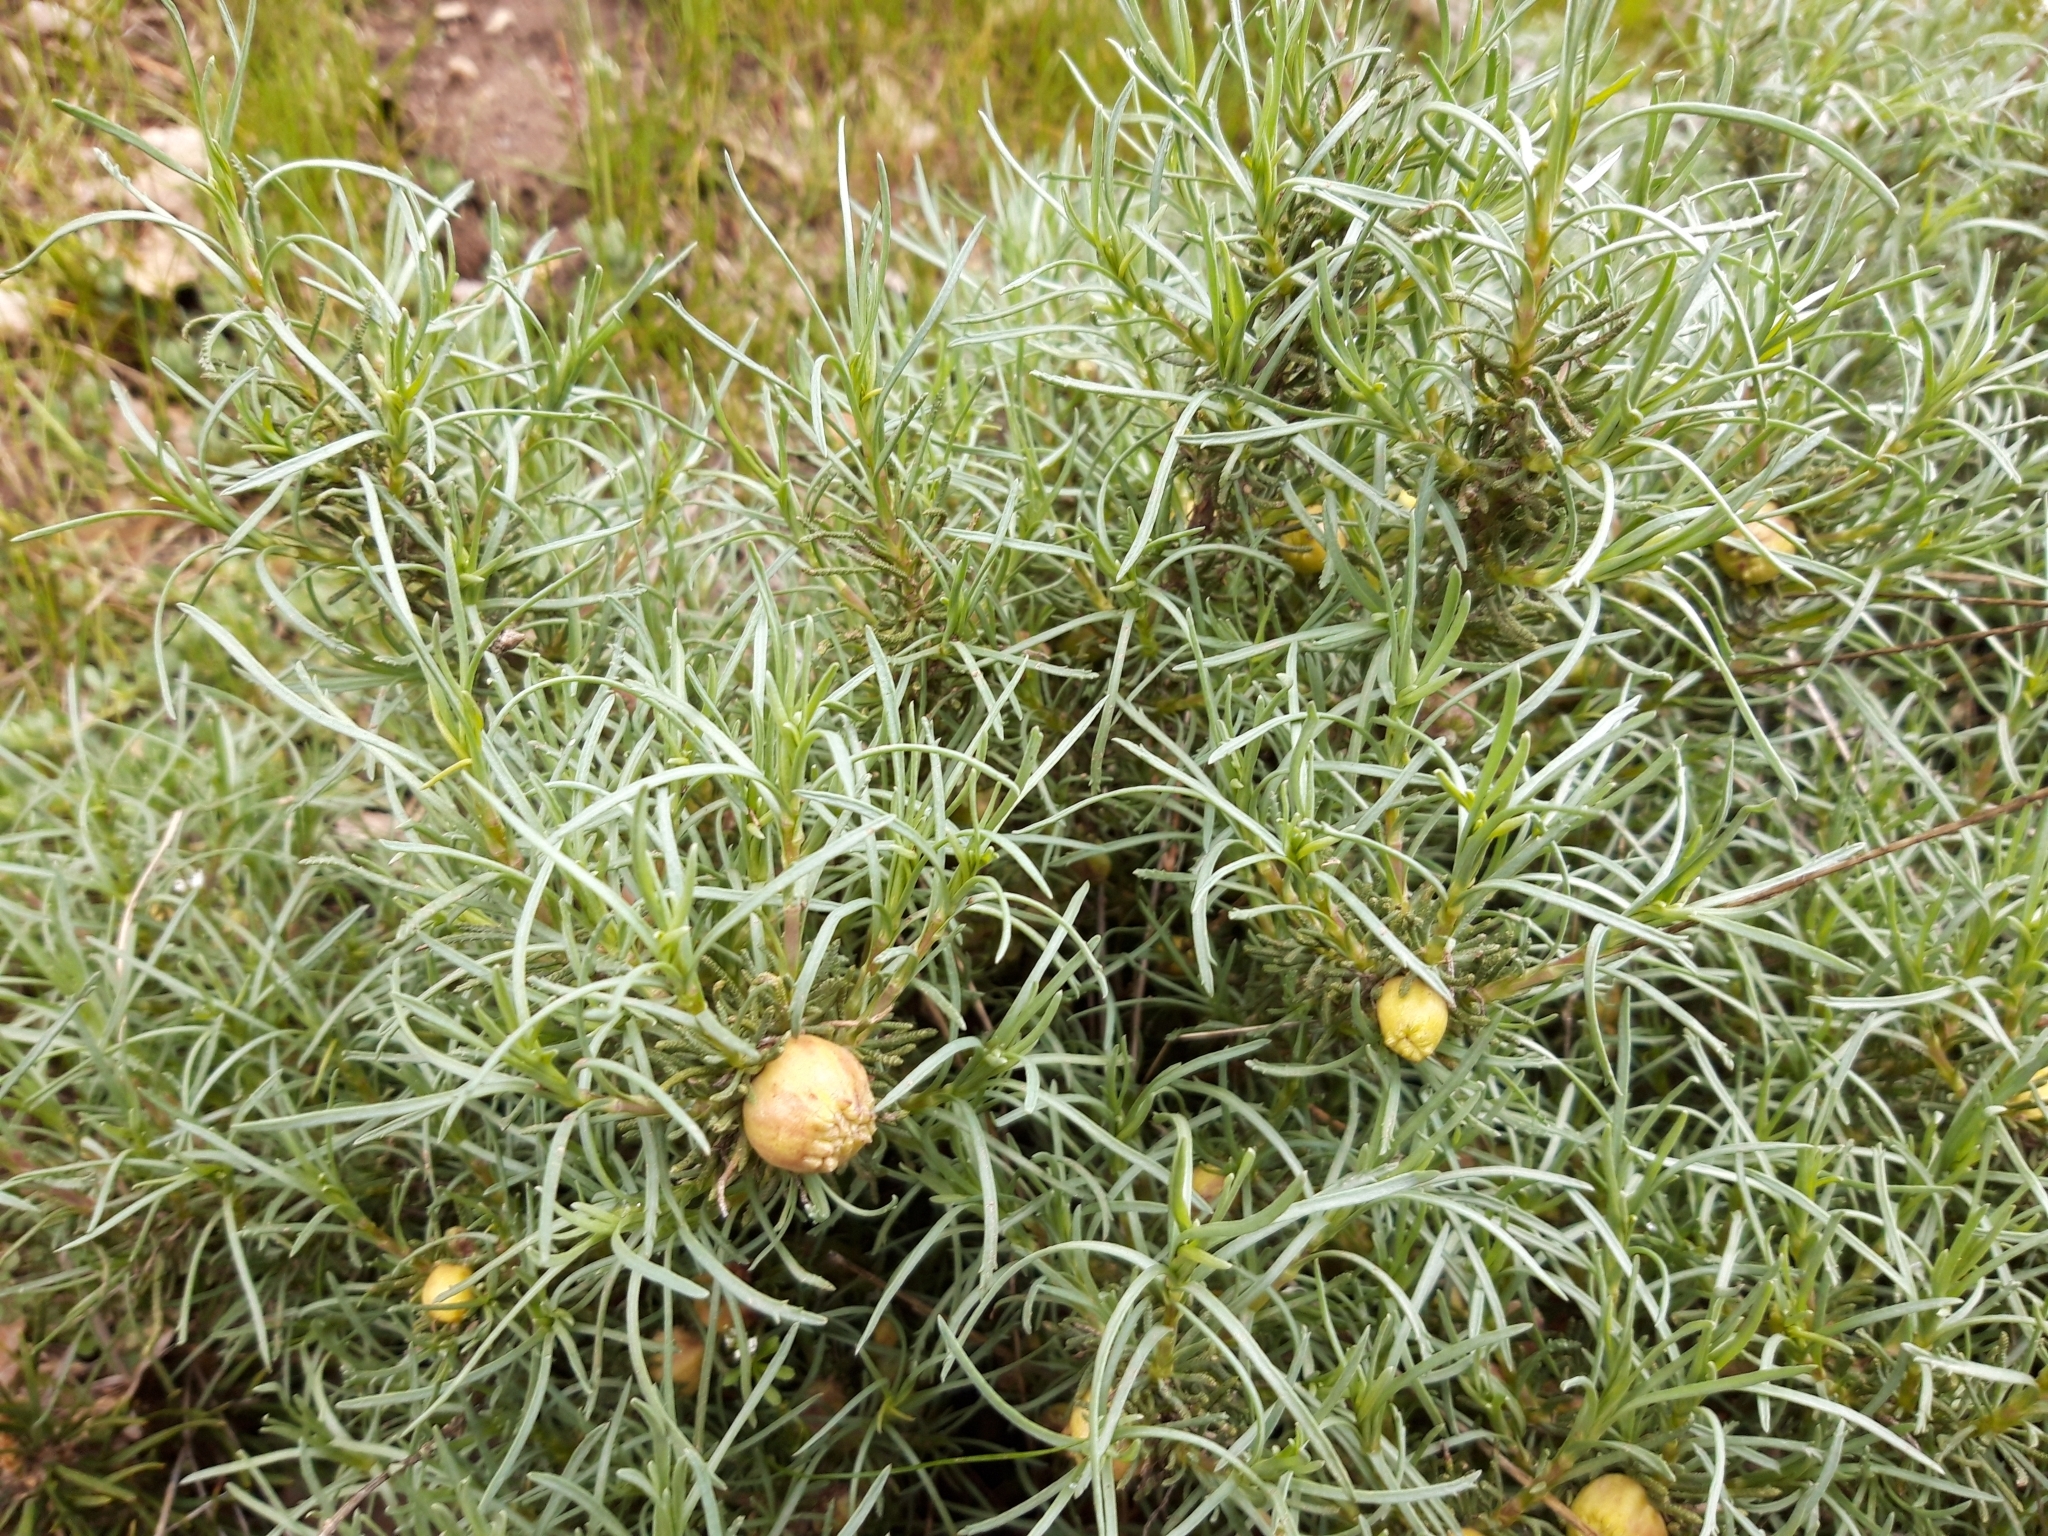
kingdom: Plantae
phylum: Tracheophyta
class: Magnoliopsida
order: Asterales
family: Asteraceae
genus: Santolina
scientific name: Santolina rosmarinifolia
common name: Holy-flax
